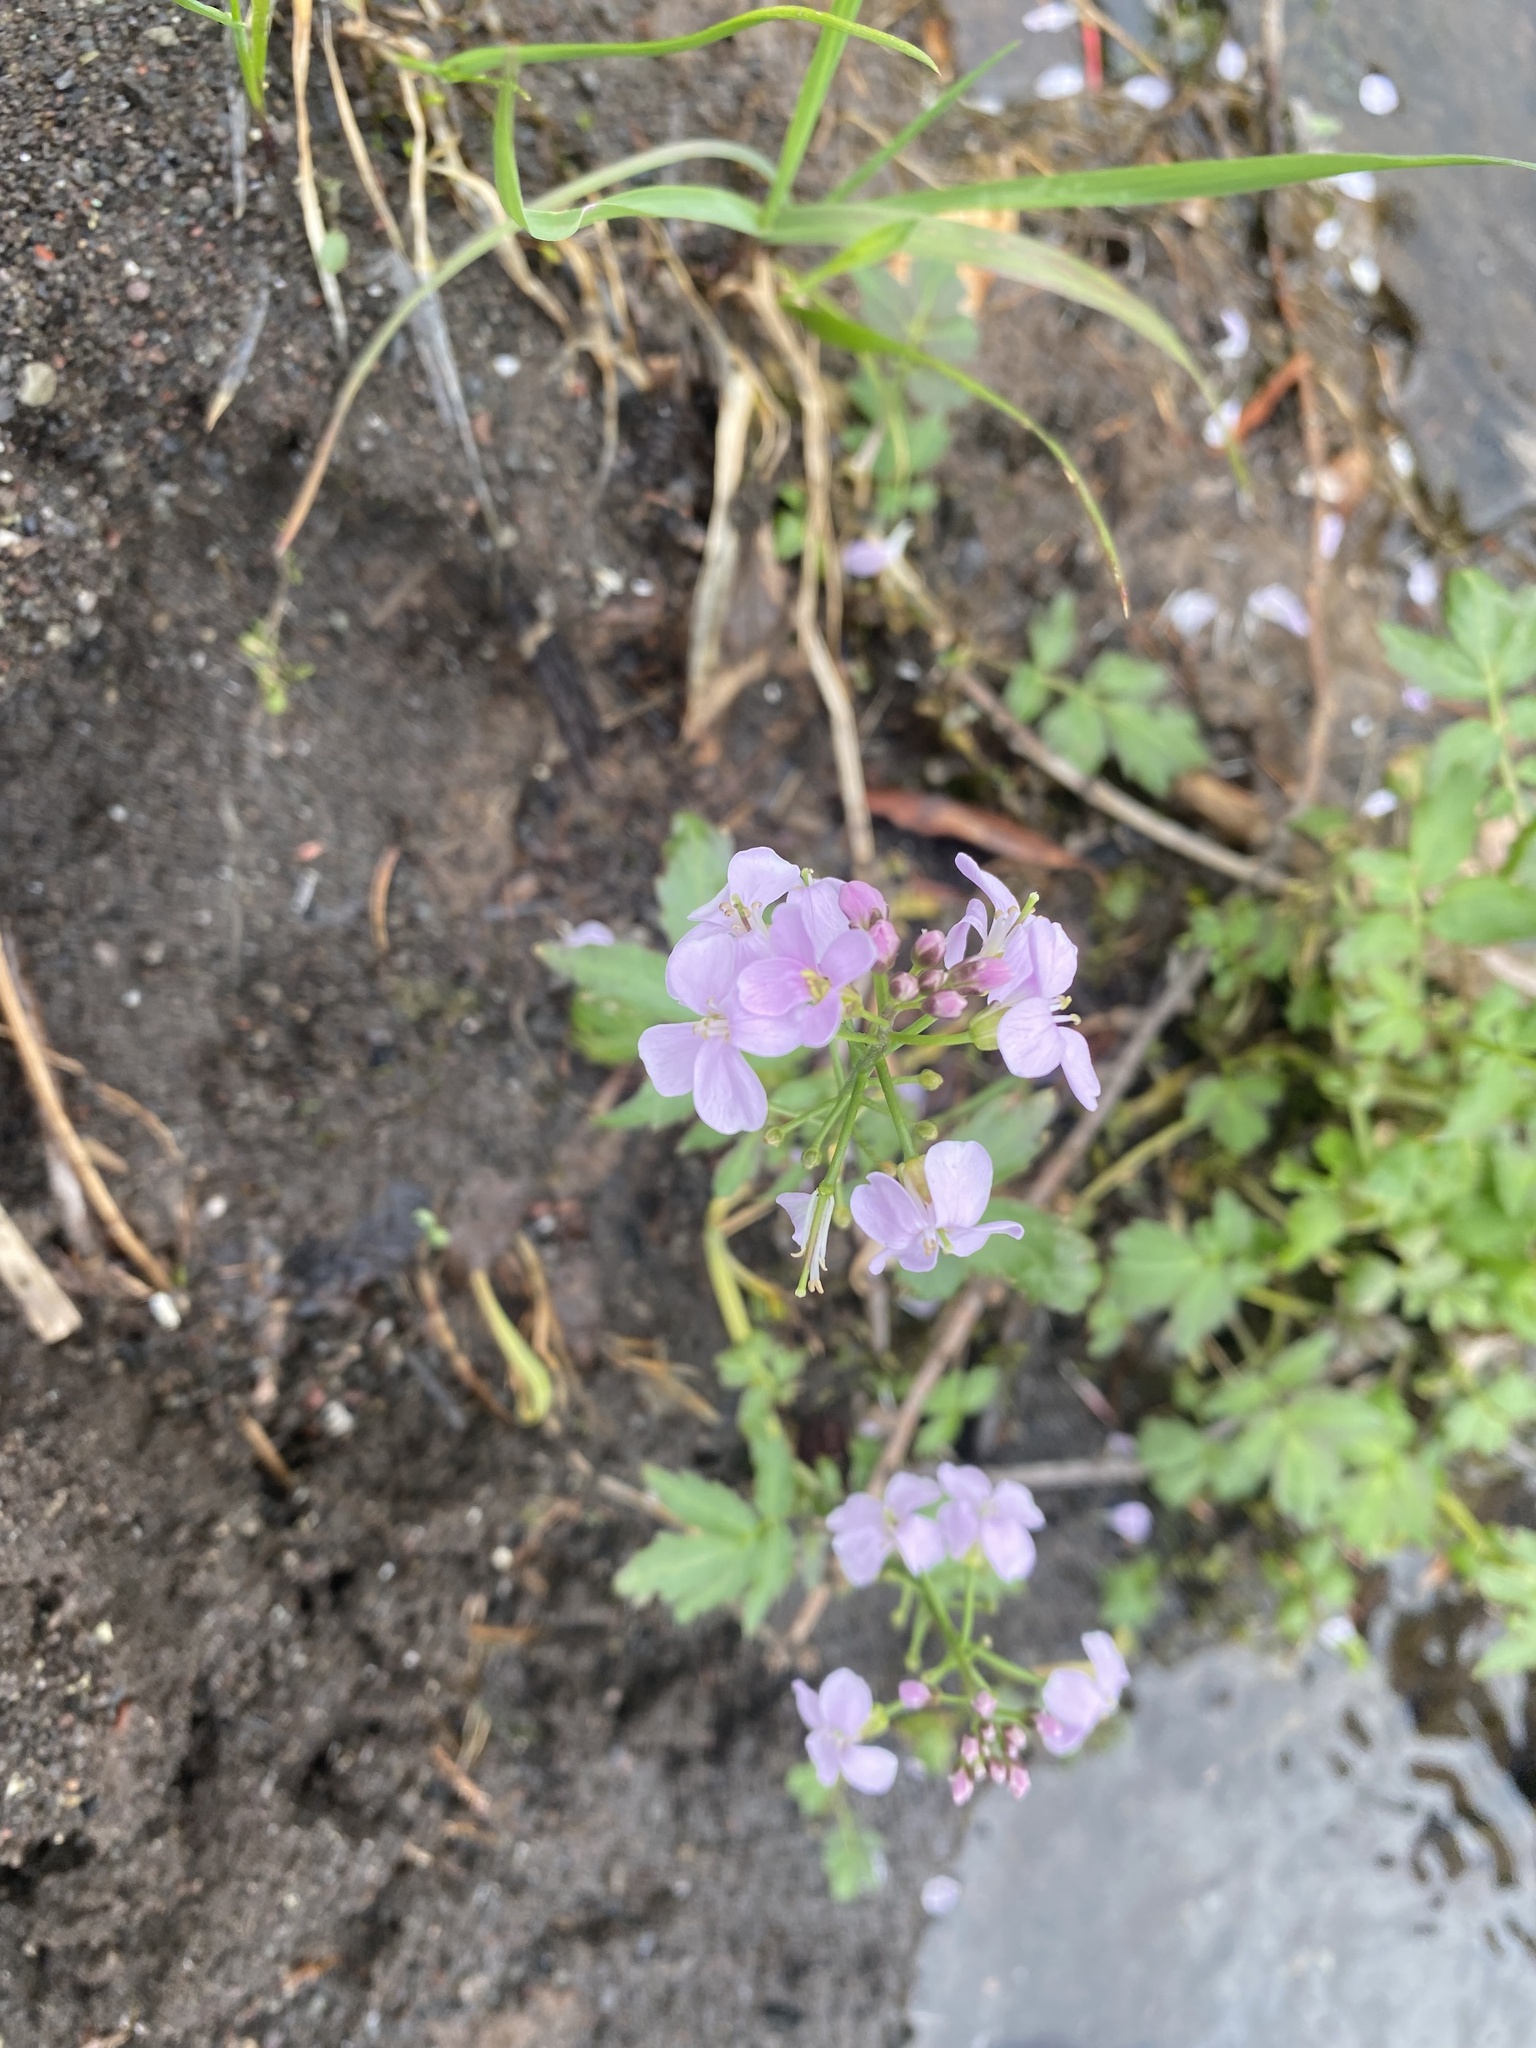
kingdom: Plantae
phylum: Tracheophyta
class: Magnoliopsida
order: Brassicales
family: Brassicaceae
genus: Cardamine
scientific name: Cardamine macrophylla
